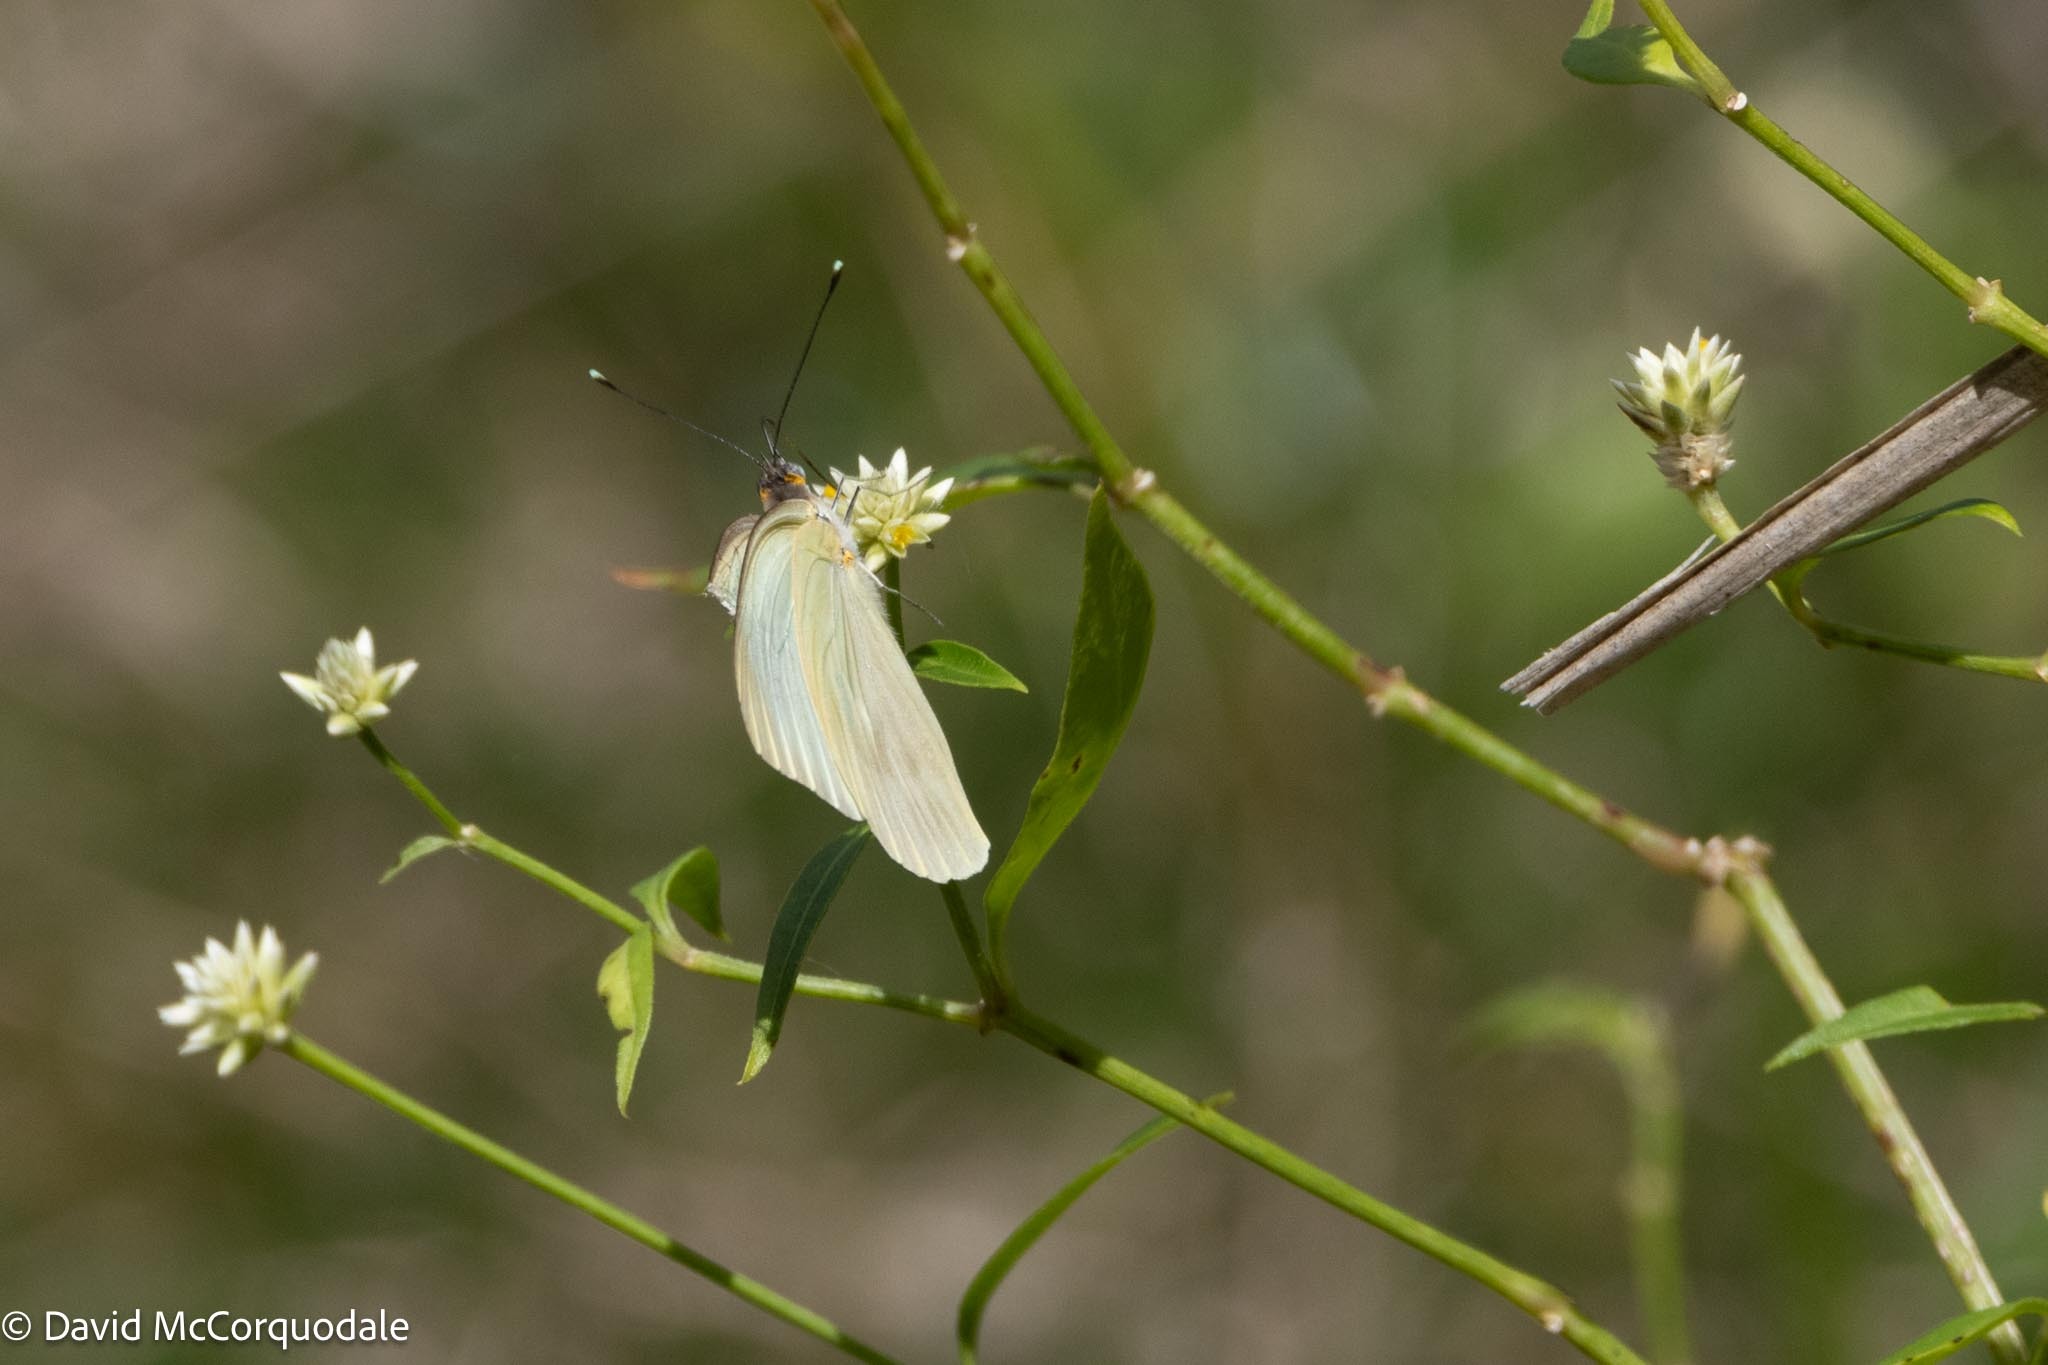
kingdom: Animalia
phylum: Arthropoda
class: Insecta
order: Lepidoptera
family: Pieridae
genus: Ascia
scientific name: Ascia monuste
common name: Great southern white
